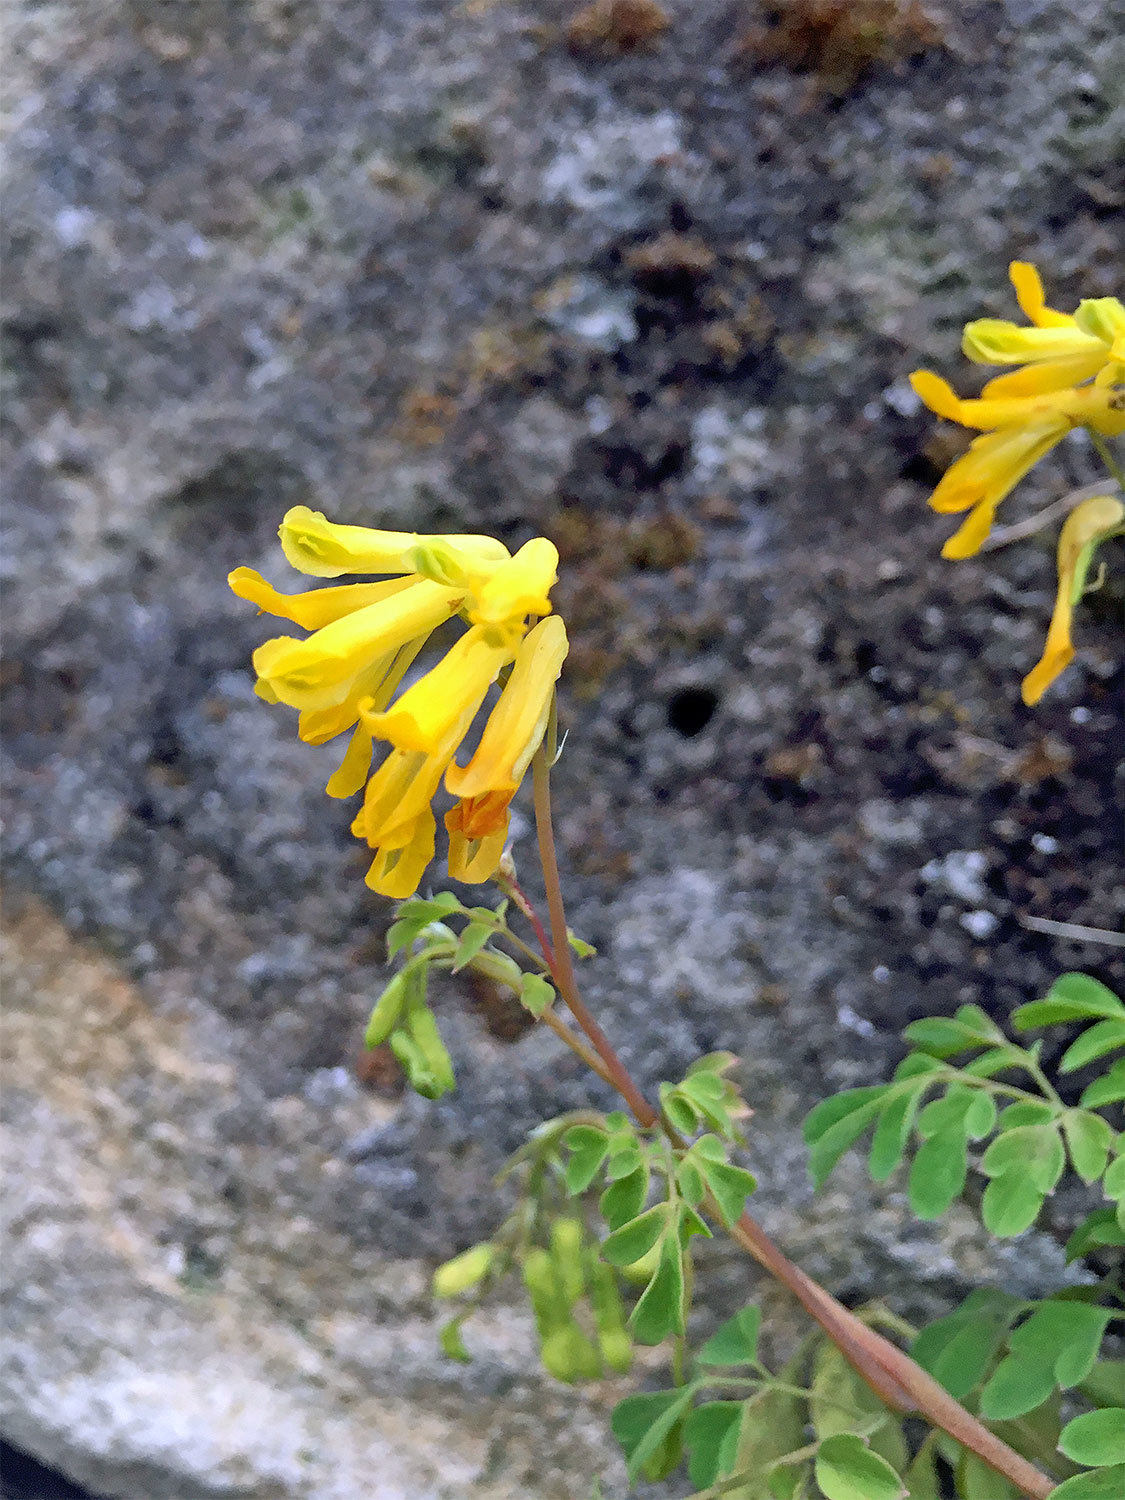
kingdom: Plantae
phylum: Tracheophyta
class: Magnoliopsida
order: Ranunculales
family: Papaveraceae
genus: Pseudofumaria
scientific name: Pseudofumaria lutea
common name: Yellow corydalis
